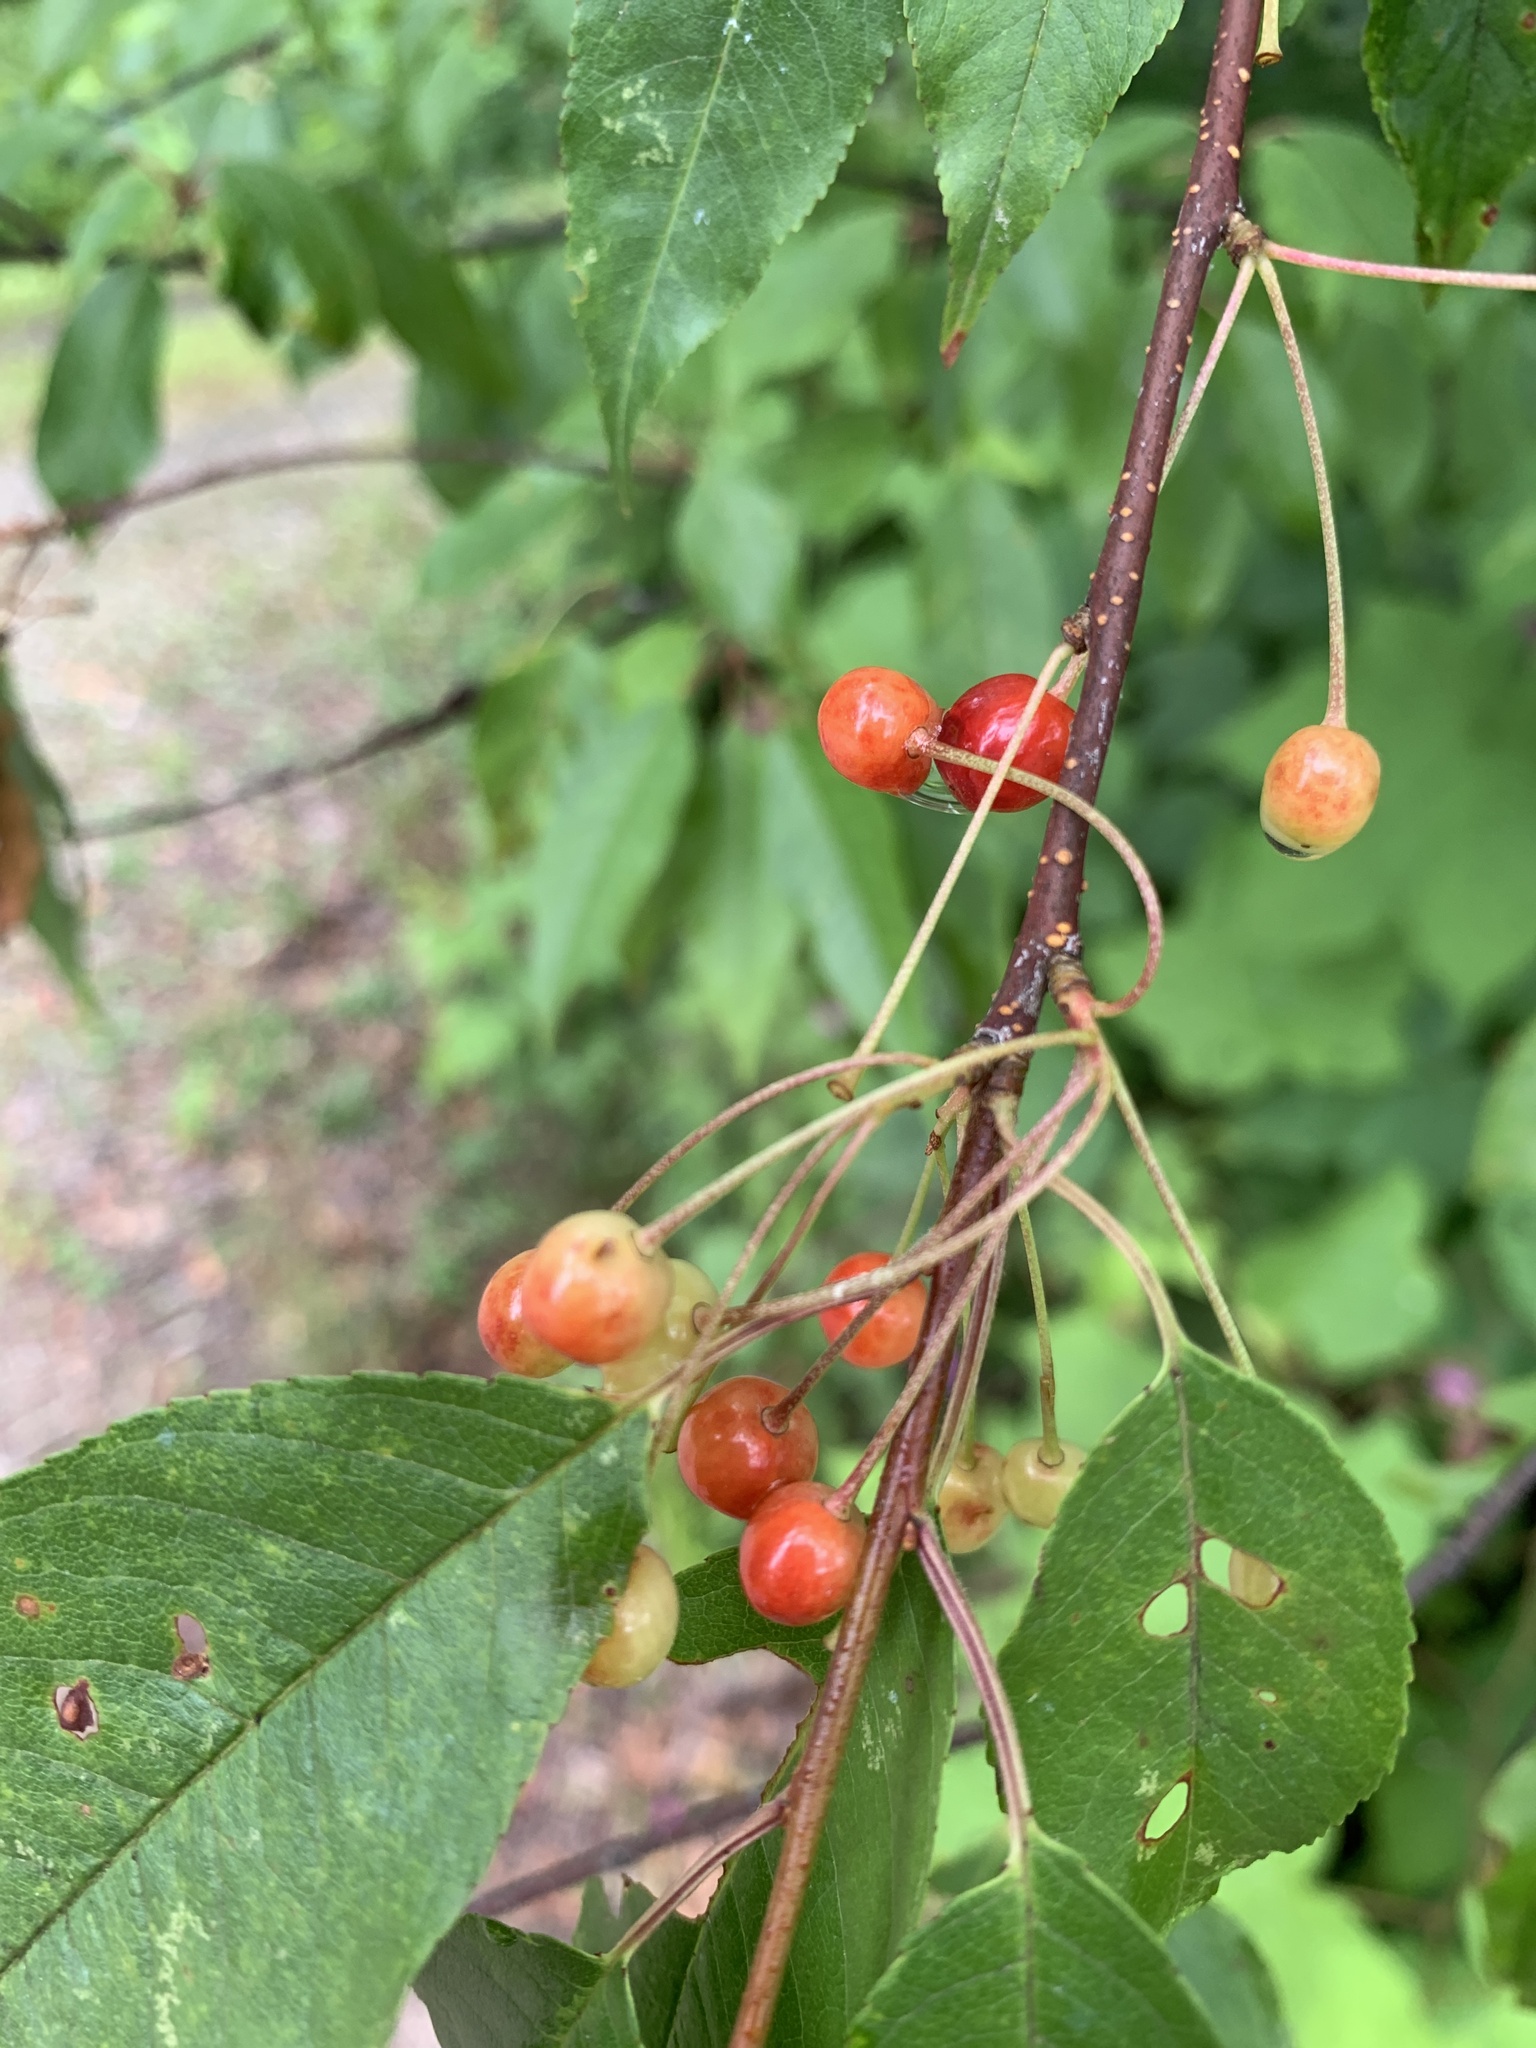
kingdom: Plantae
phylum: Tracheophyta
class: Magnoliopsida
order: Rosales
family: Rosaceae
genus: Prunus
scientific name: Prunus pensylvanica
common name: Pin cherry
